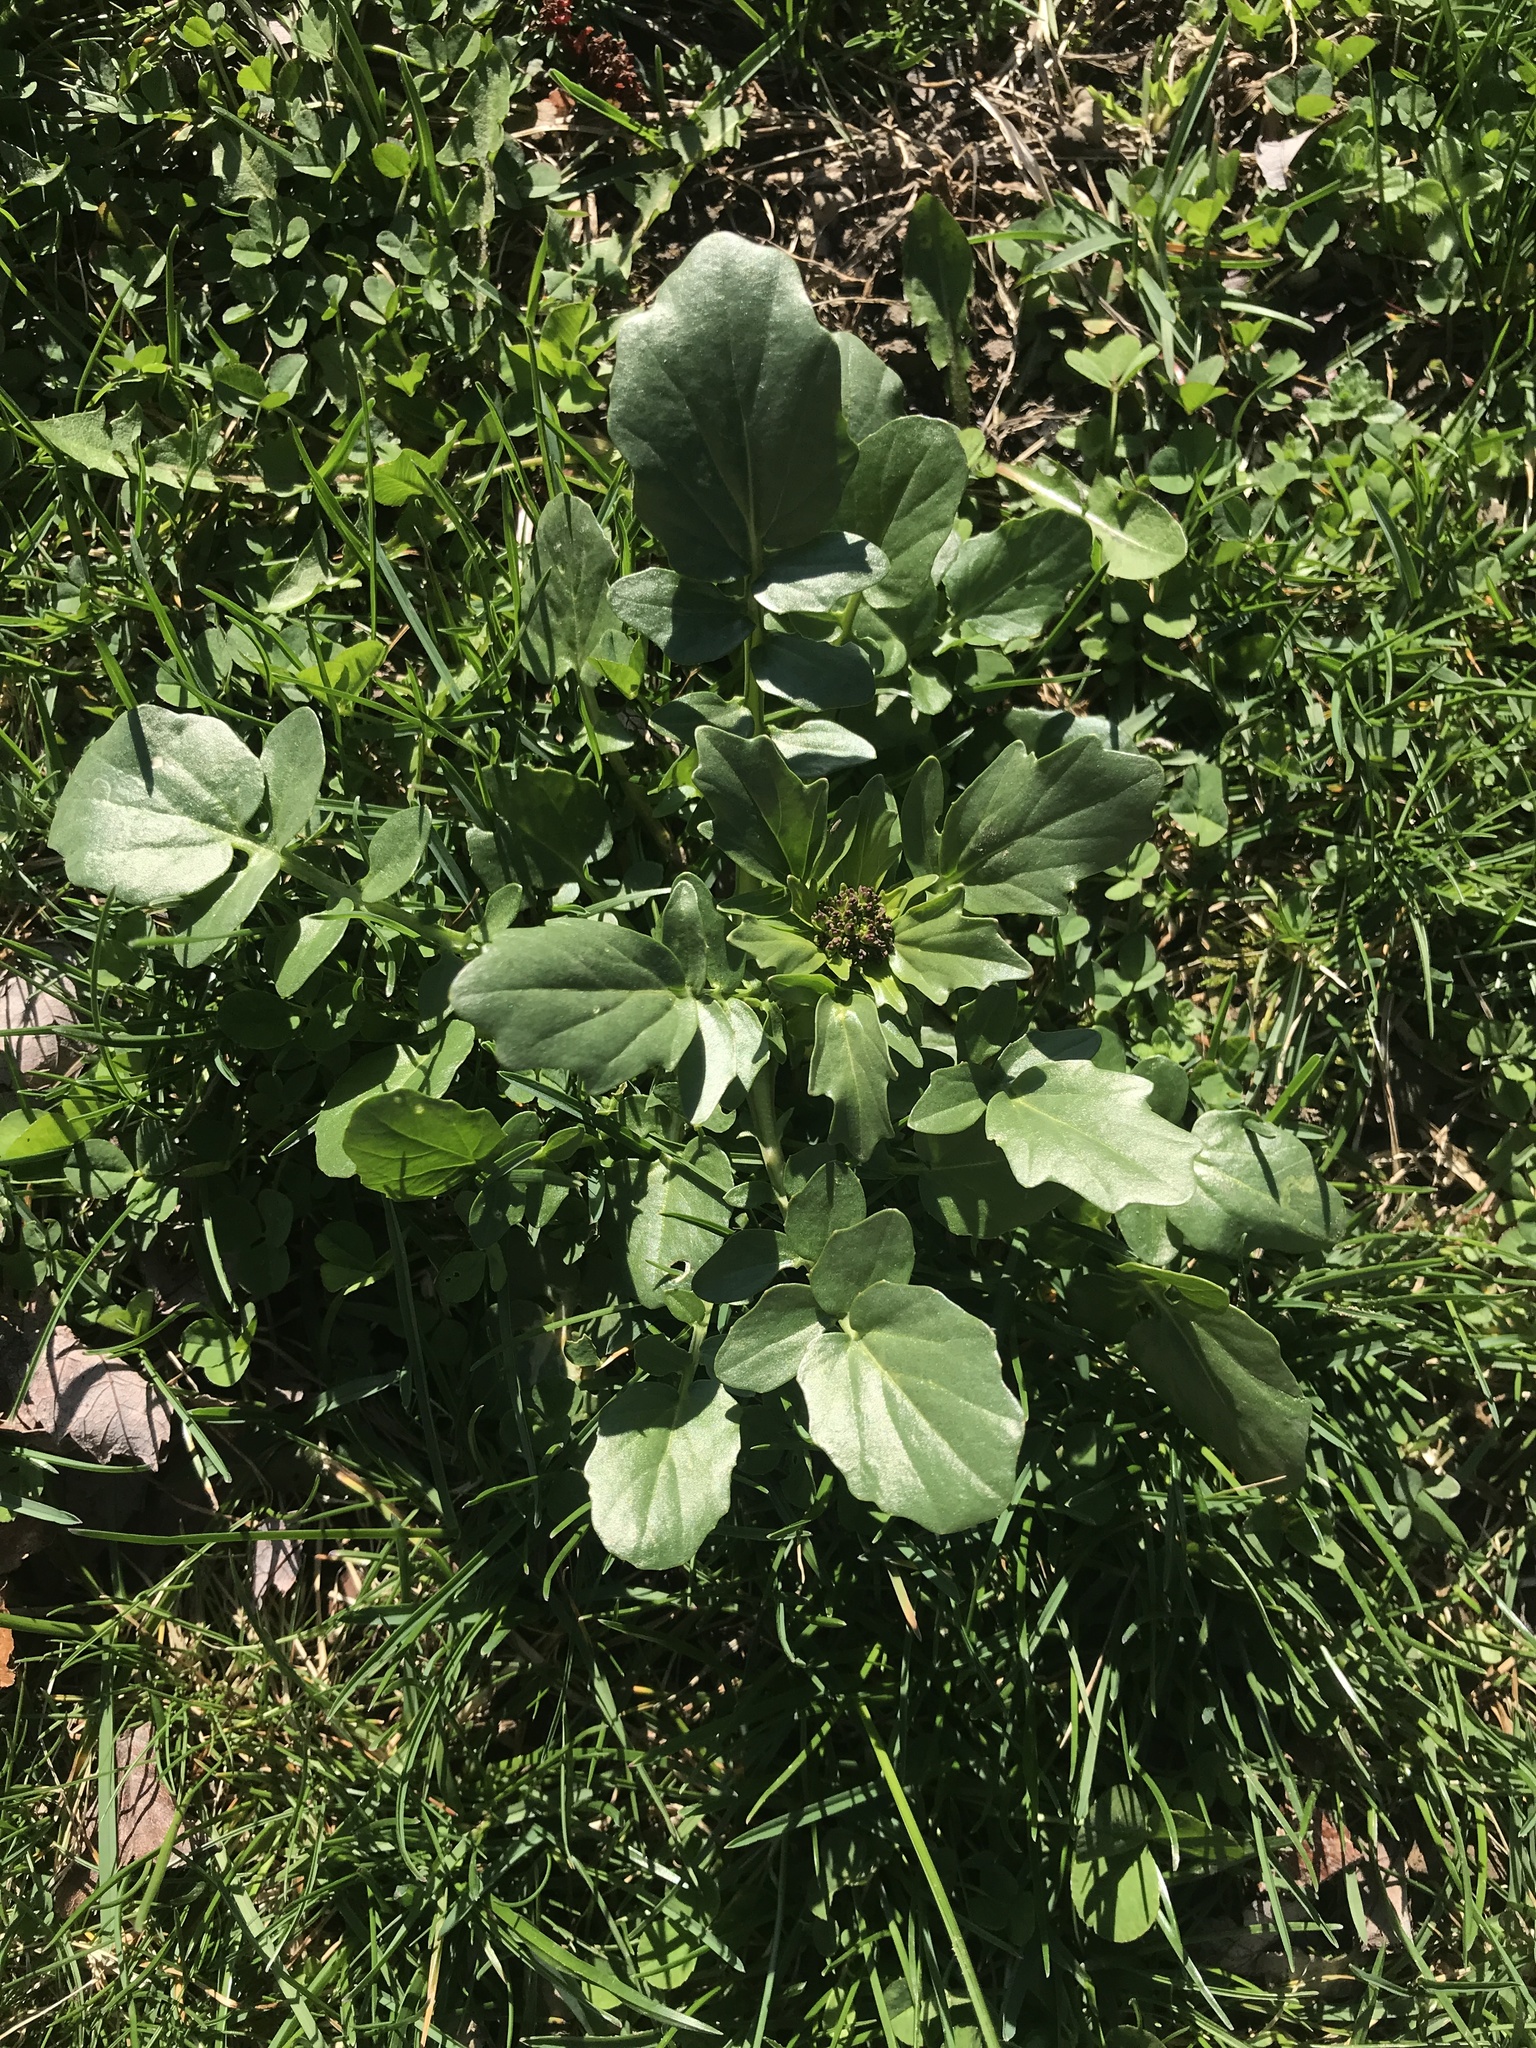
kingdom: Plantae
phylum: Tracheophyta
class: Magnoliopsida
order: Brassicales
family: Brassicaceae
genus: Barbarea
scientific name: Barbarea vulgaris
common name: Cressy-greens
